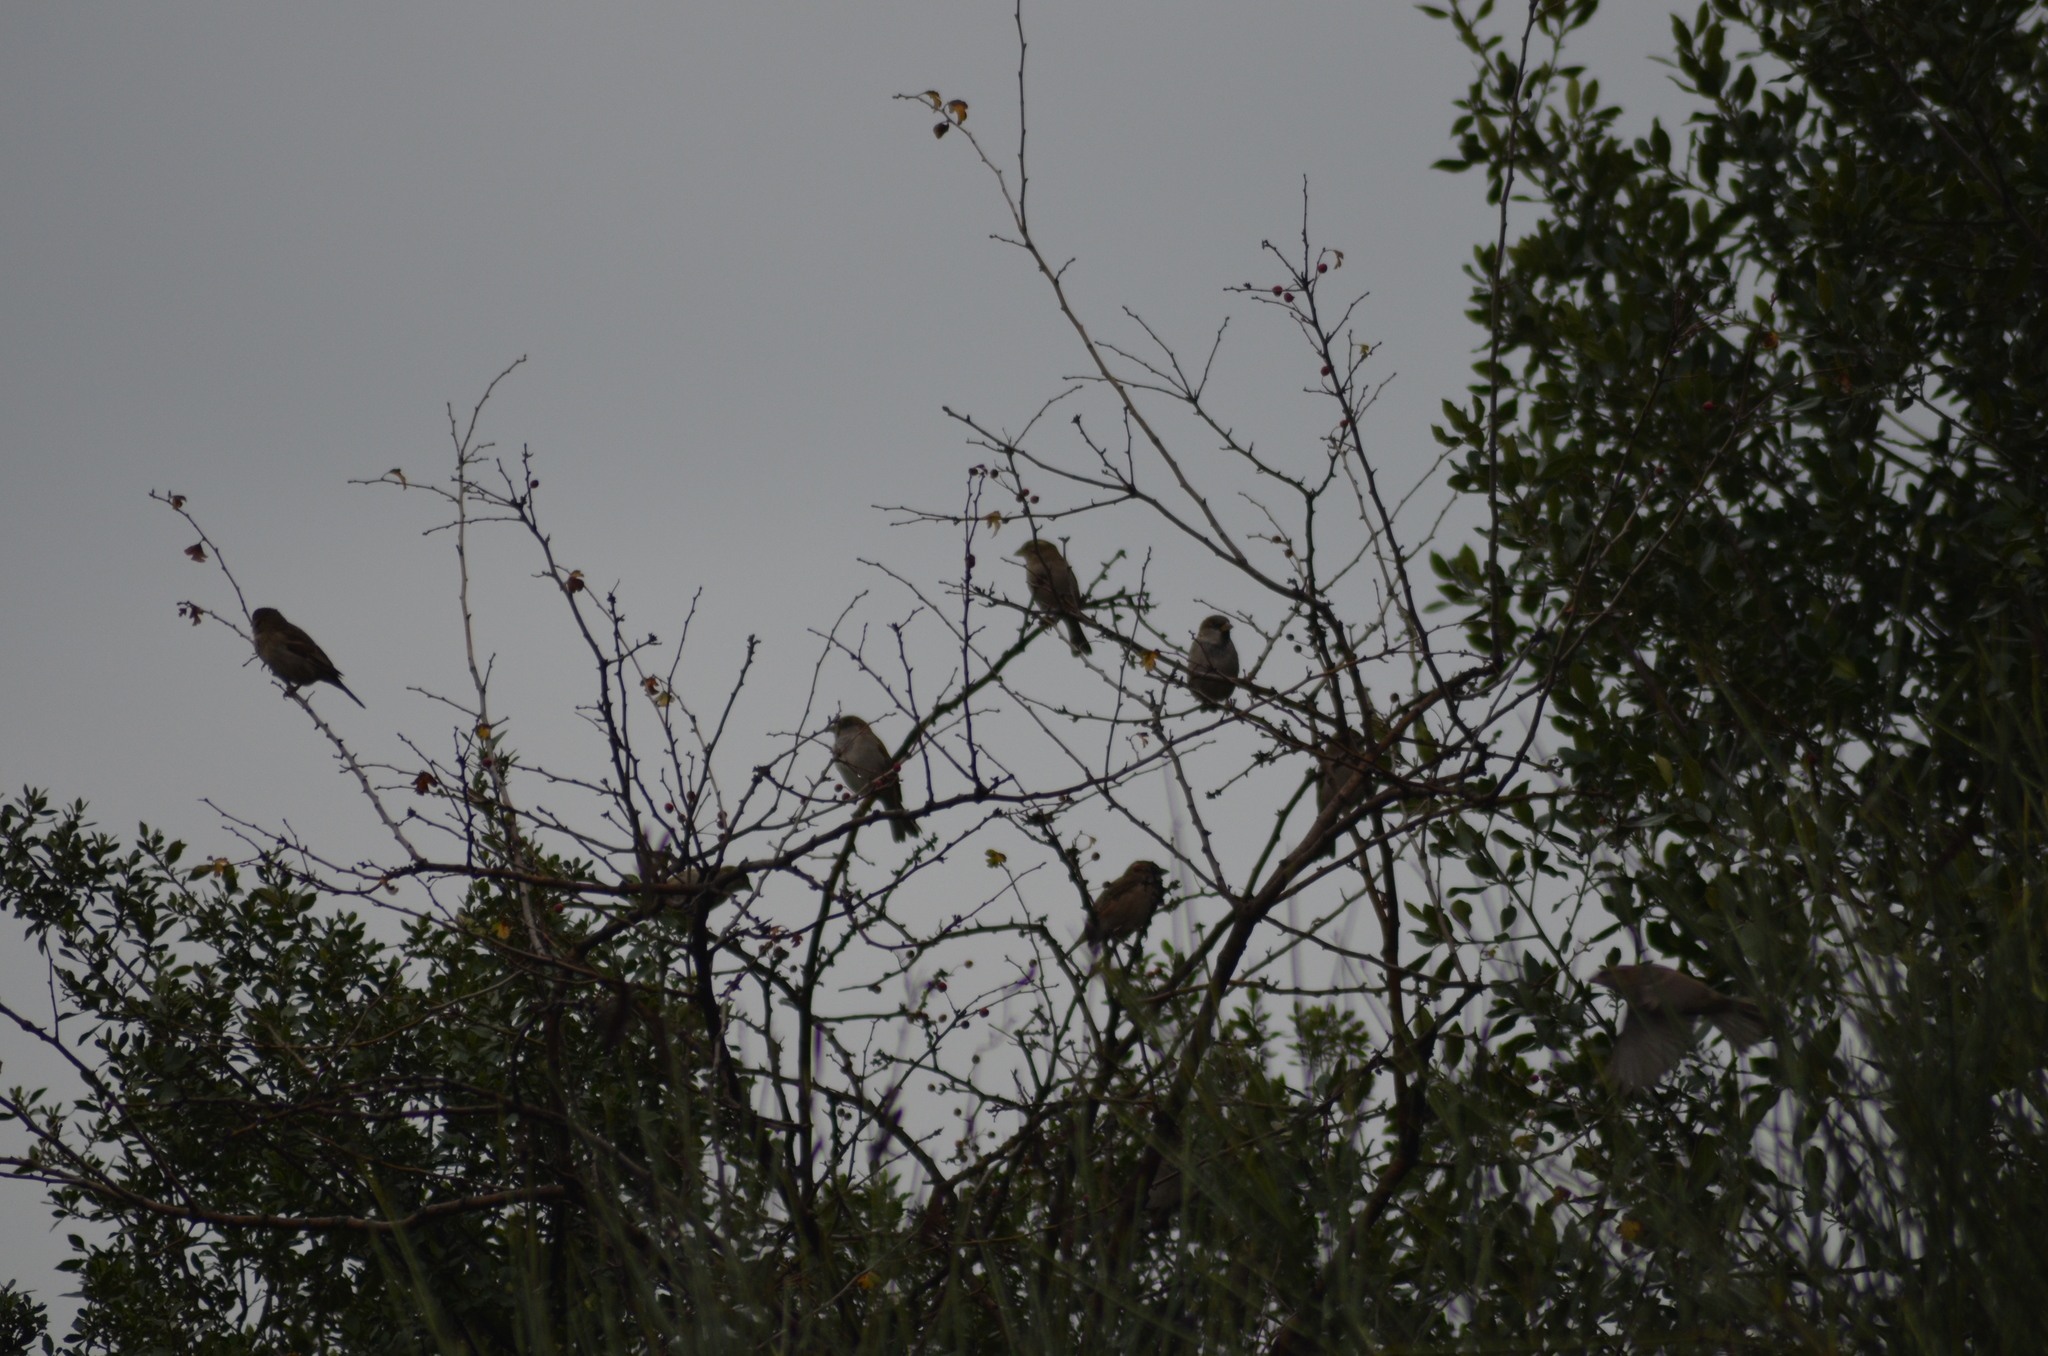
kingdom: Animalia
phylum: Chordata
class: Aves
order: Passeriformes
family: Passeridae
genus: Passer
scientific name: Passer domesticus
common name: House sparrow
